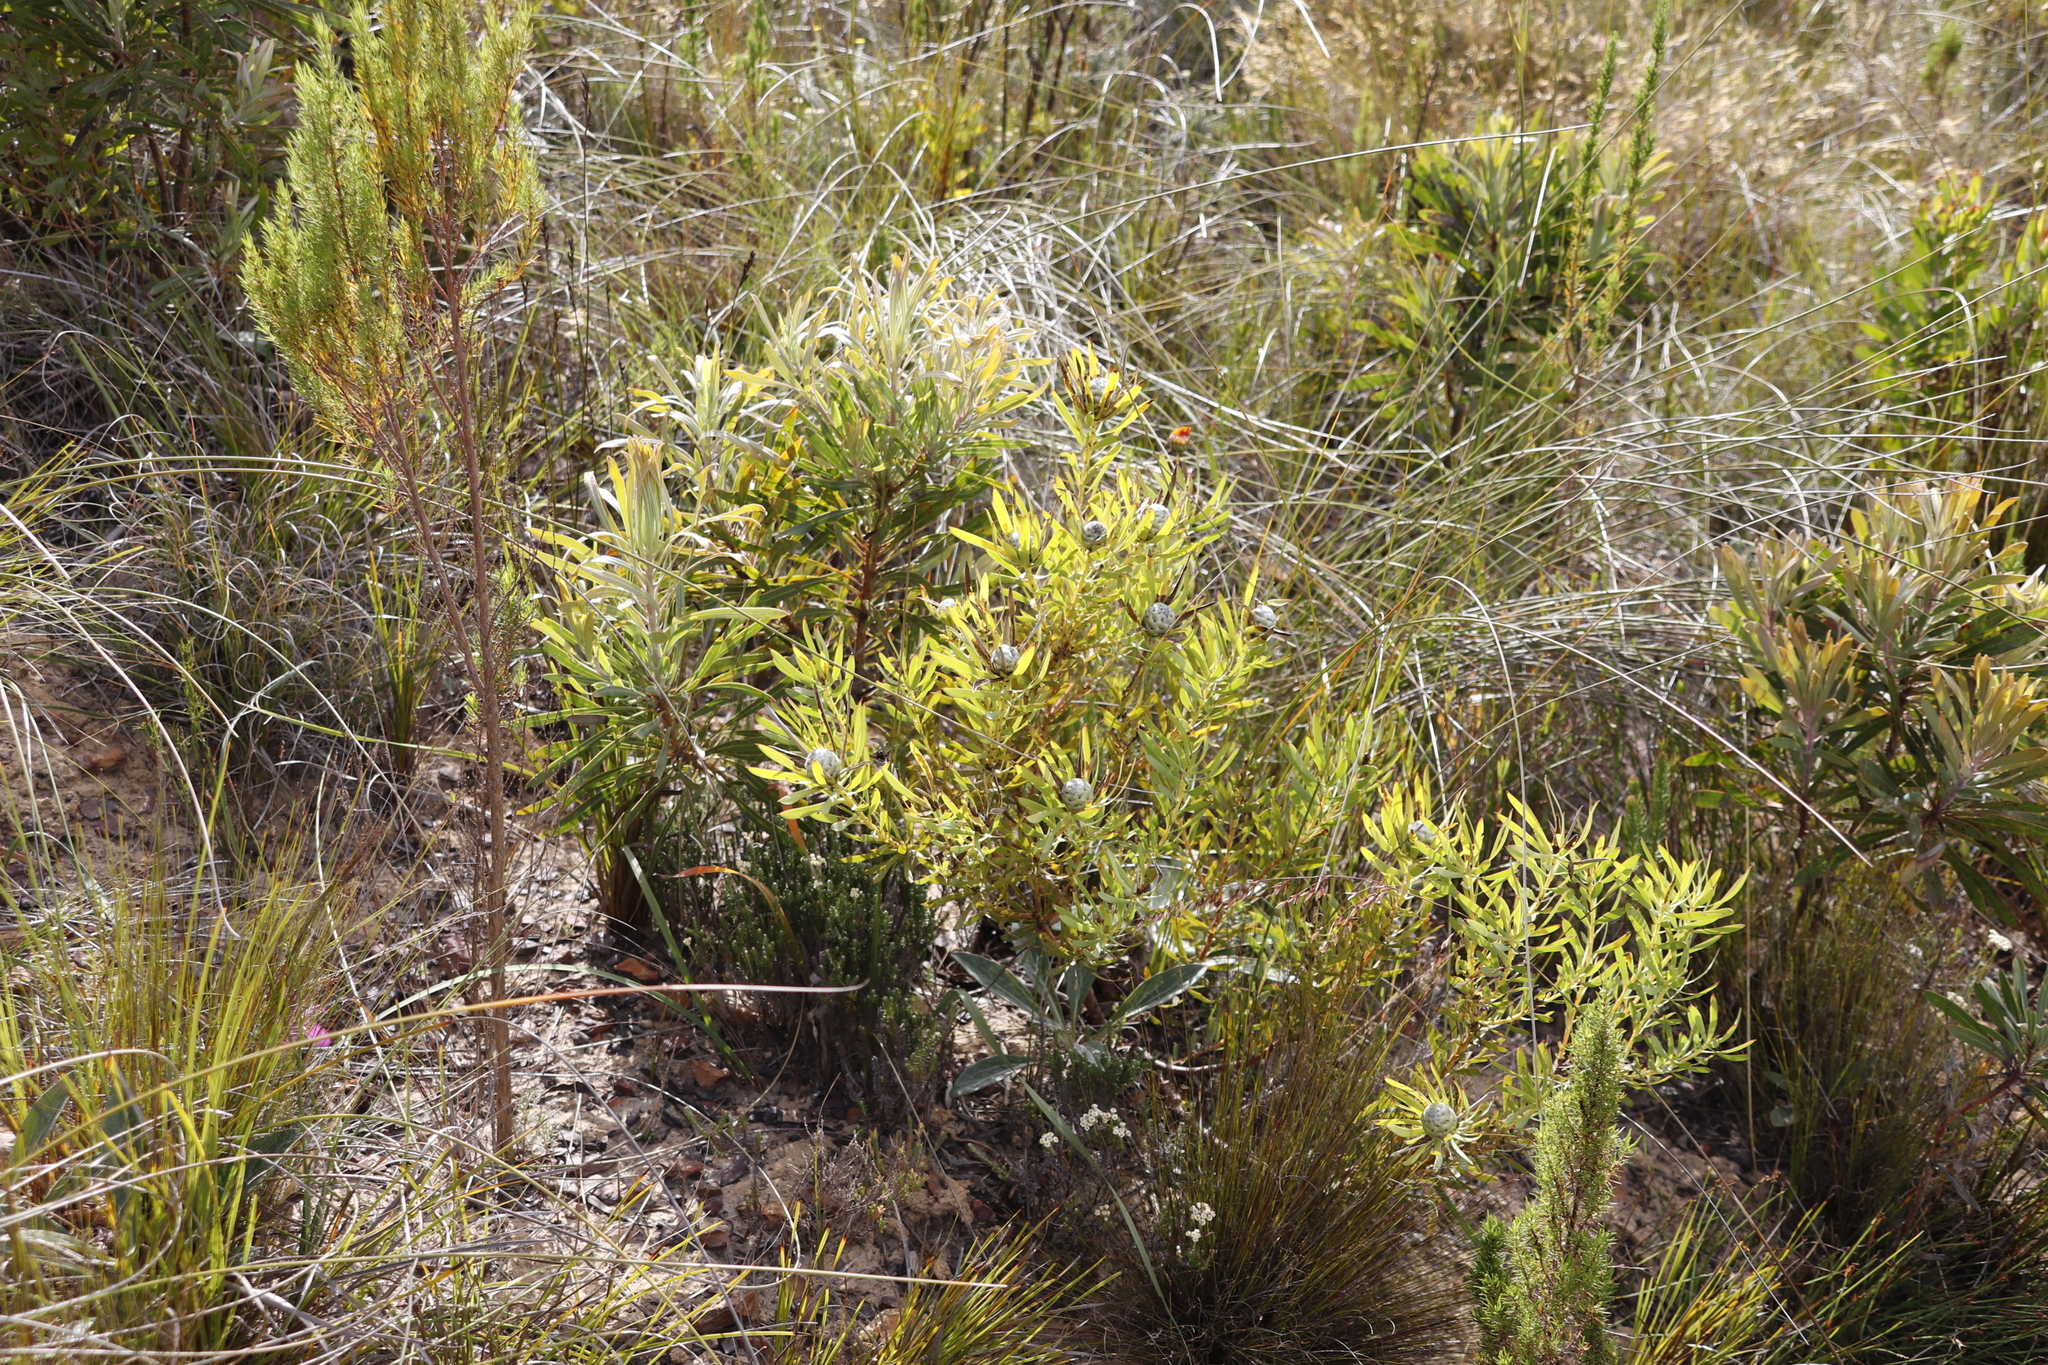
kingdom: Plantae
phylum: Tracheophyta
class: Magnoliopsida
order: Proteales
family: Proteaceae
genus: Leucadendron
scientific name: Leucadendron salignum
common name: Common sunshine conebush
